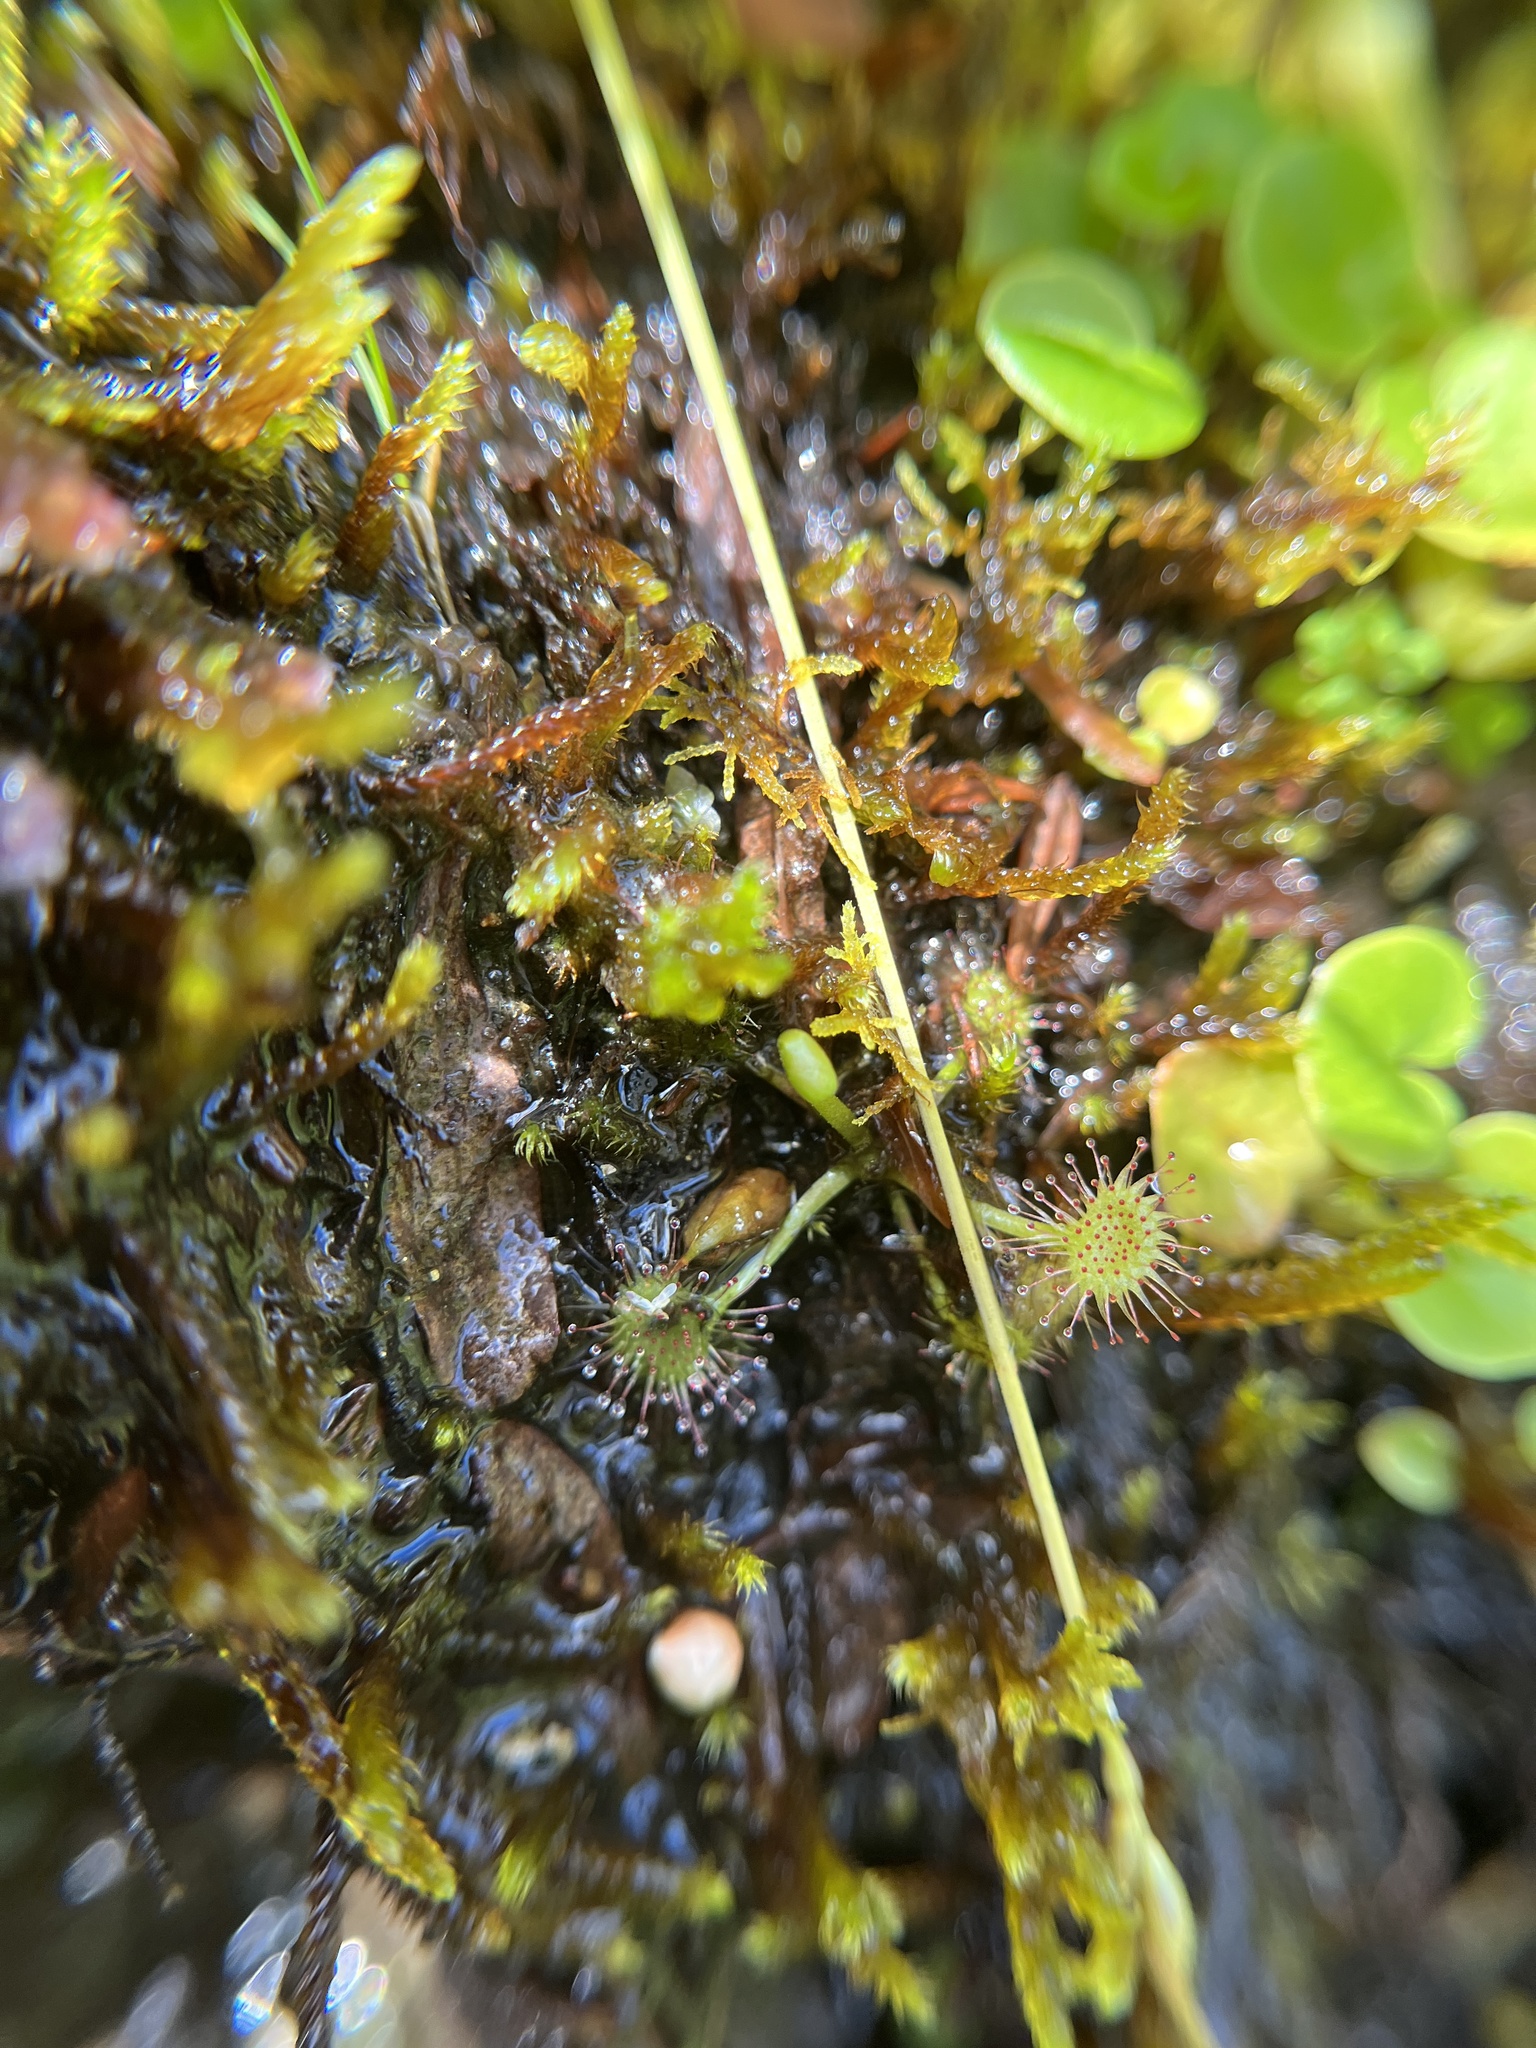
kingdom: Plantae
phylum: Tracheophyta
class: Magnoliopsida
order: Caryophyllales
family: Droseraceae
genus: Drosera
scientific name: Drosera rotundifolia
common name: Round-leaved sundew
